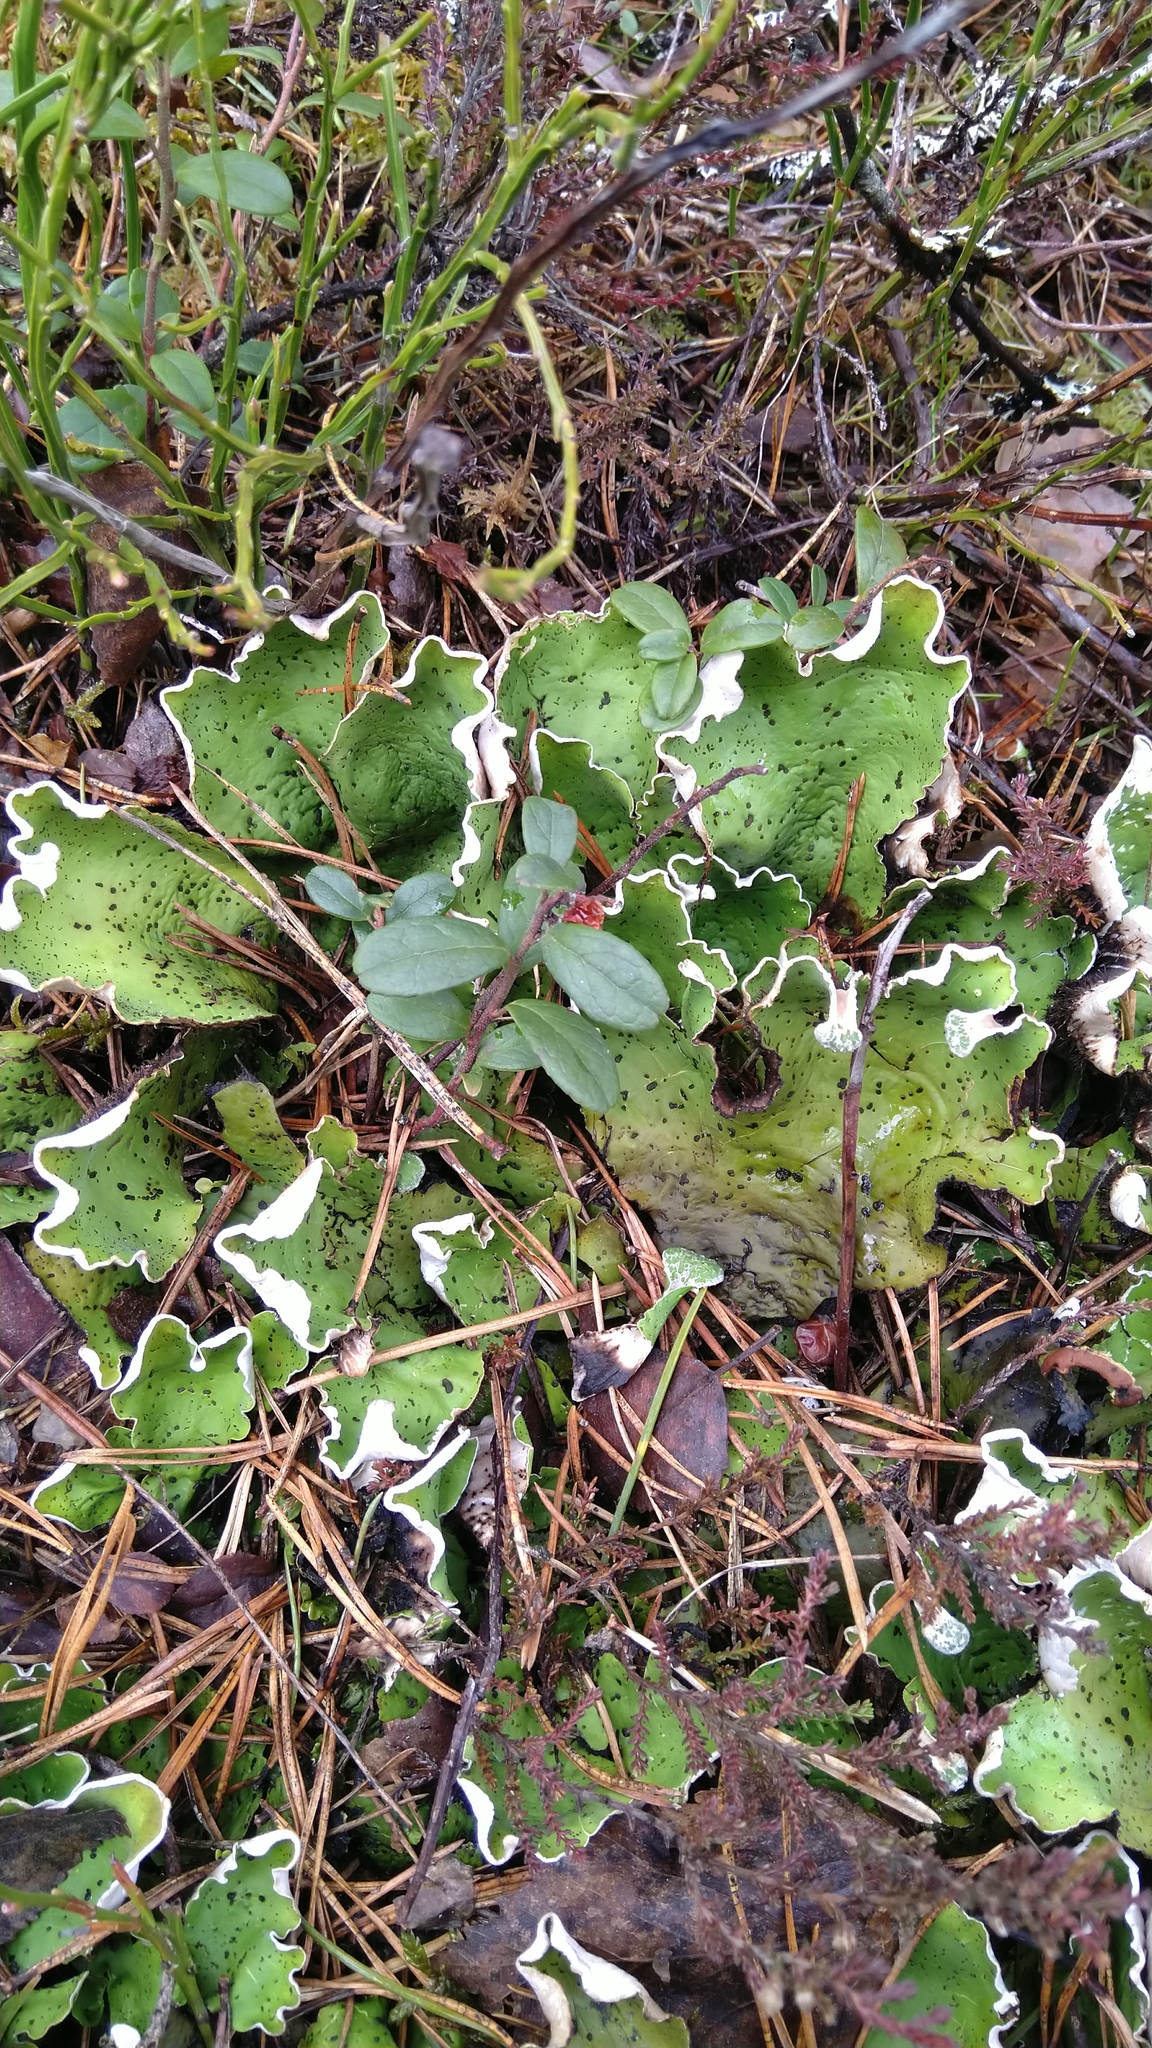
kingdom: Fungi
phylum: Ascomycota
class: Lecanoromycetes
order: Peltigerales
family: Peltigeraceae
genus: Peltigera
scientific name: Peltigera aphthosa
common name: Common freckle pelt lichen
